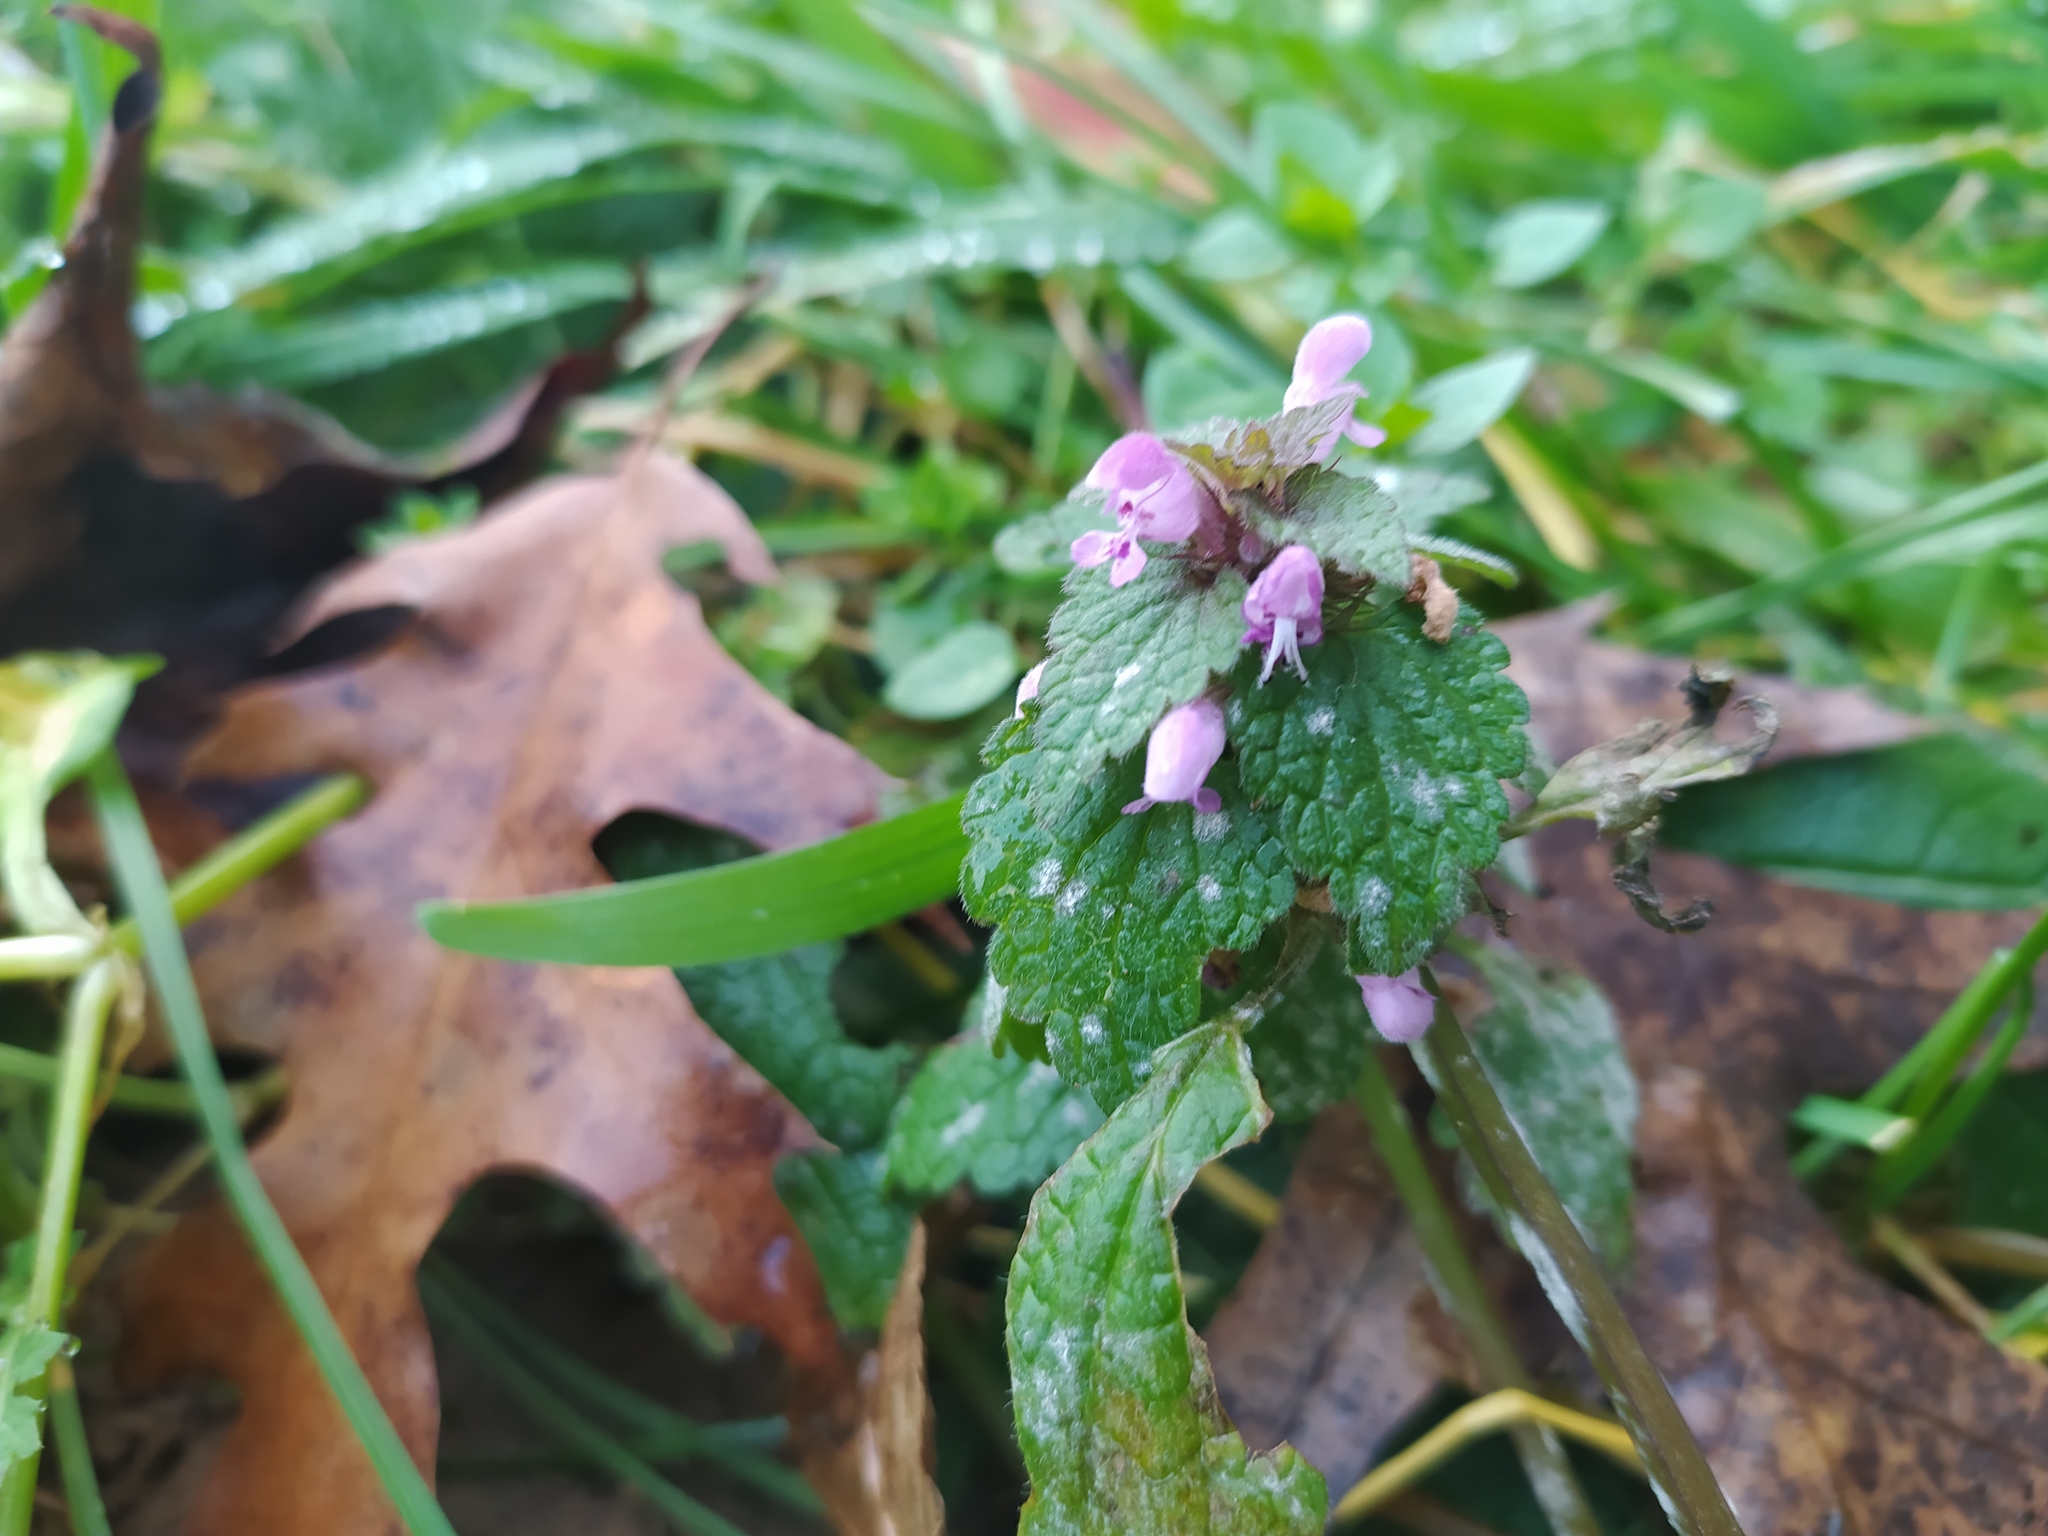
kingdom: Plantae
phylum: Tracheophyta
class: Magnoliopsida
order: Lamiales
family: Lamiaceae
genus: Lamium
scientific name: Lamium purpureum
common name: Red dead-nettle
